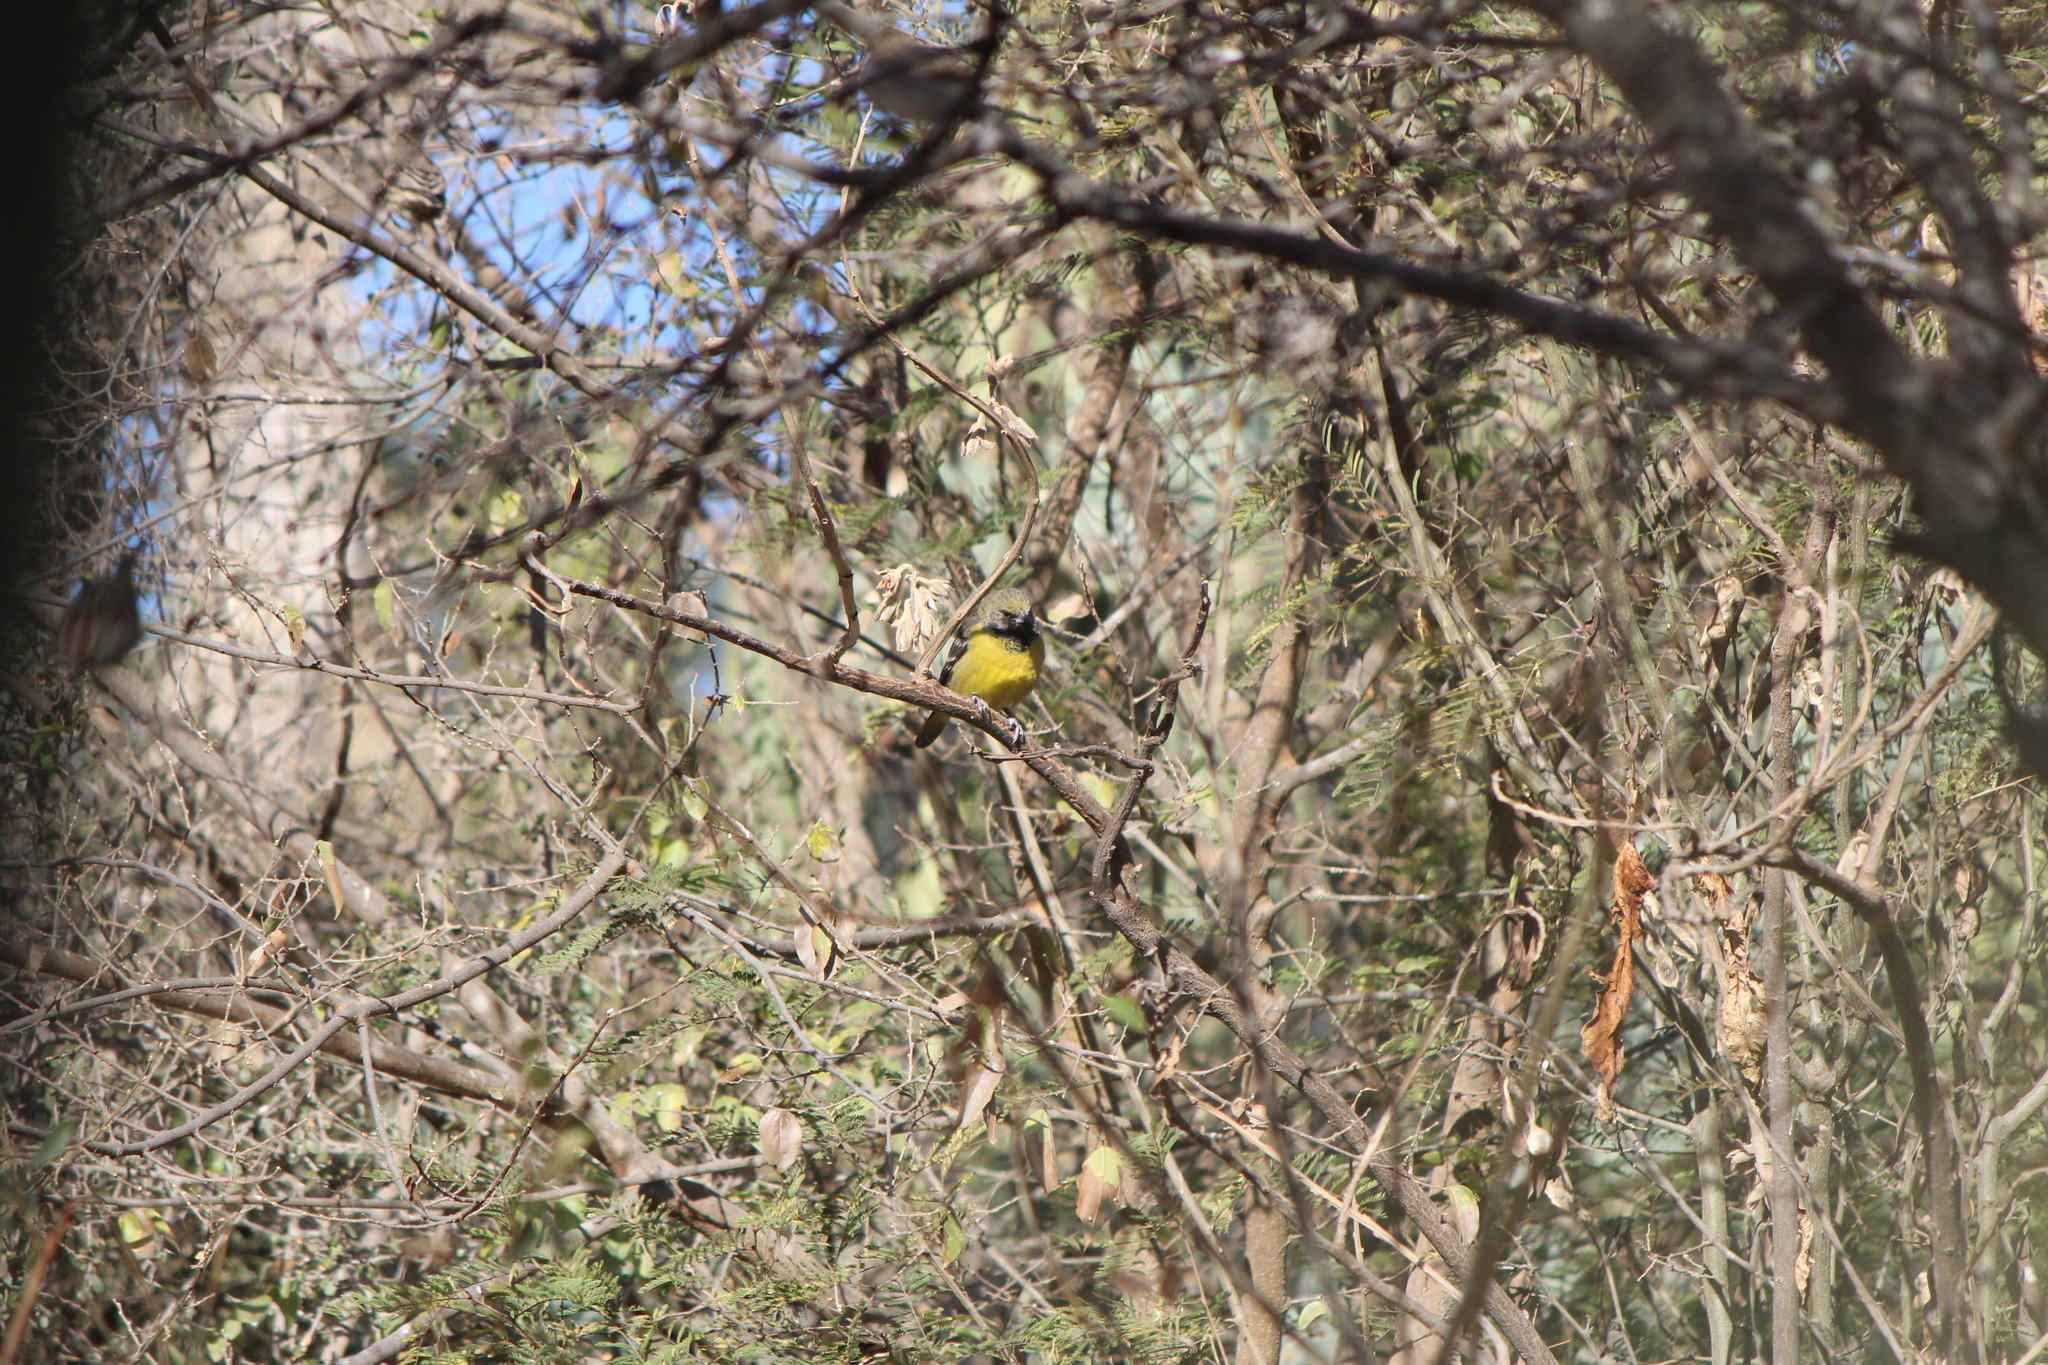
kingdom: Animalia
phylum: Chordata
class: Aves
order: Passeriformes
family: Icteridae
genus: Icterus
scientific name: Icterus parisorum
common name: Scott's oriole
